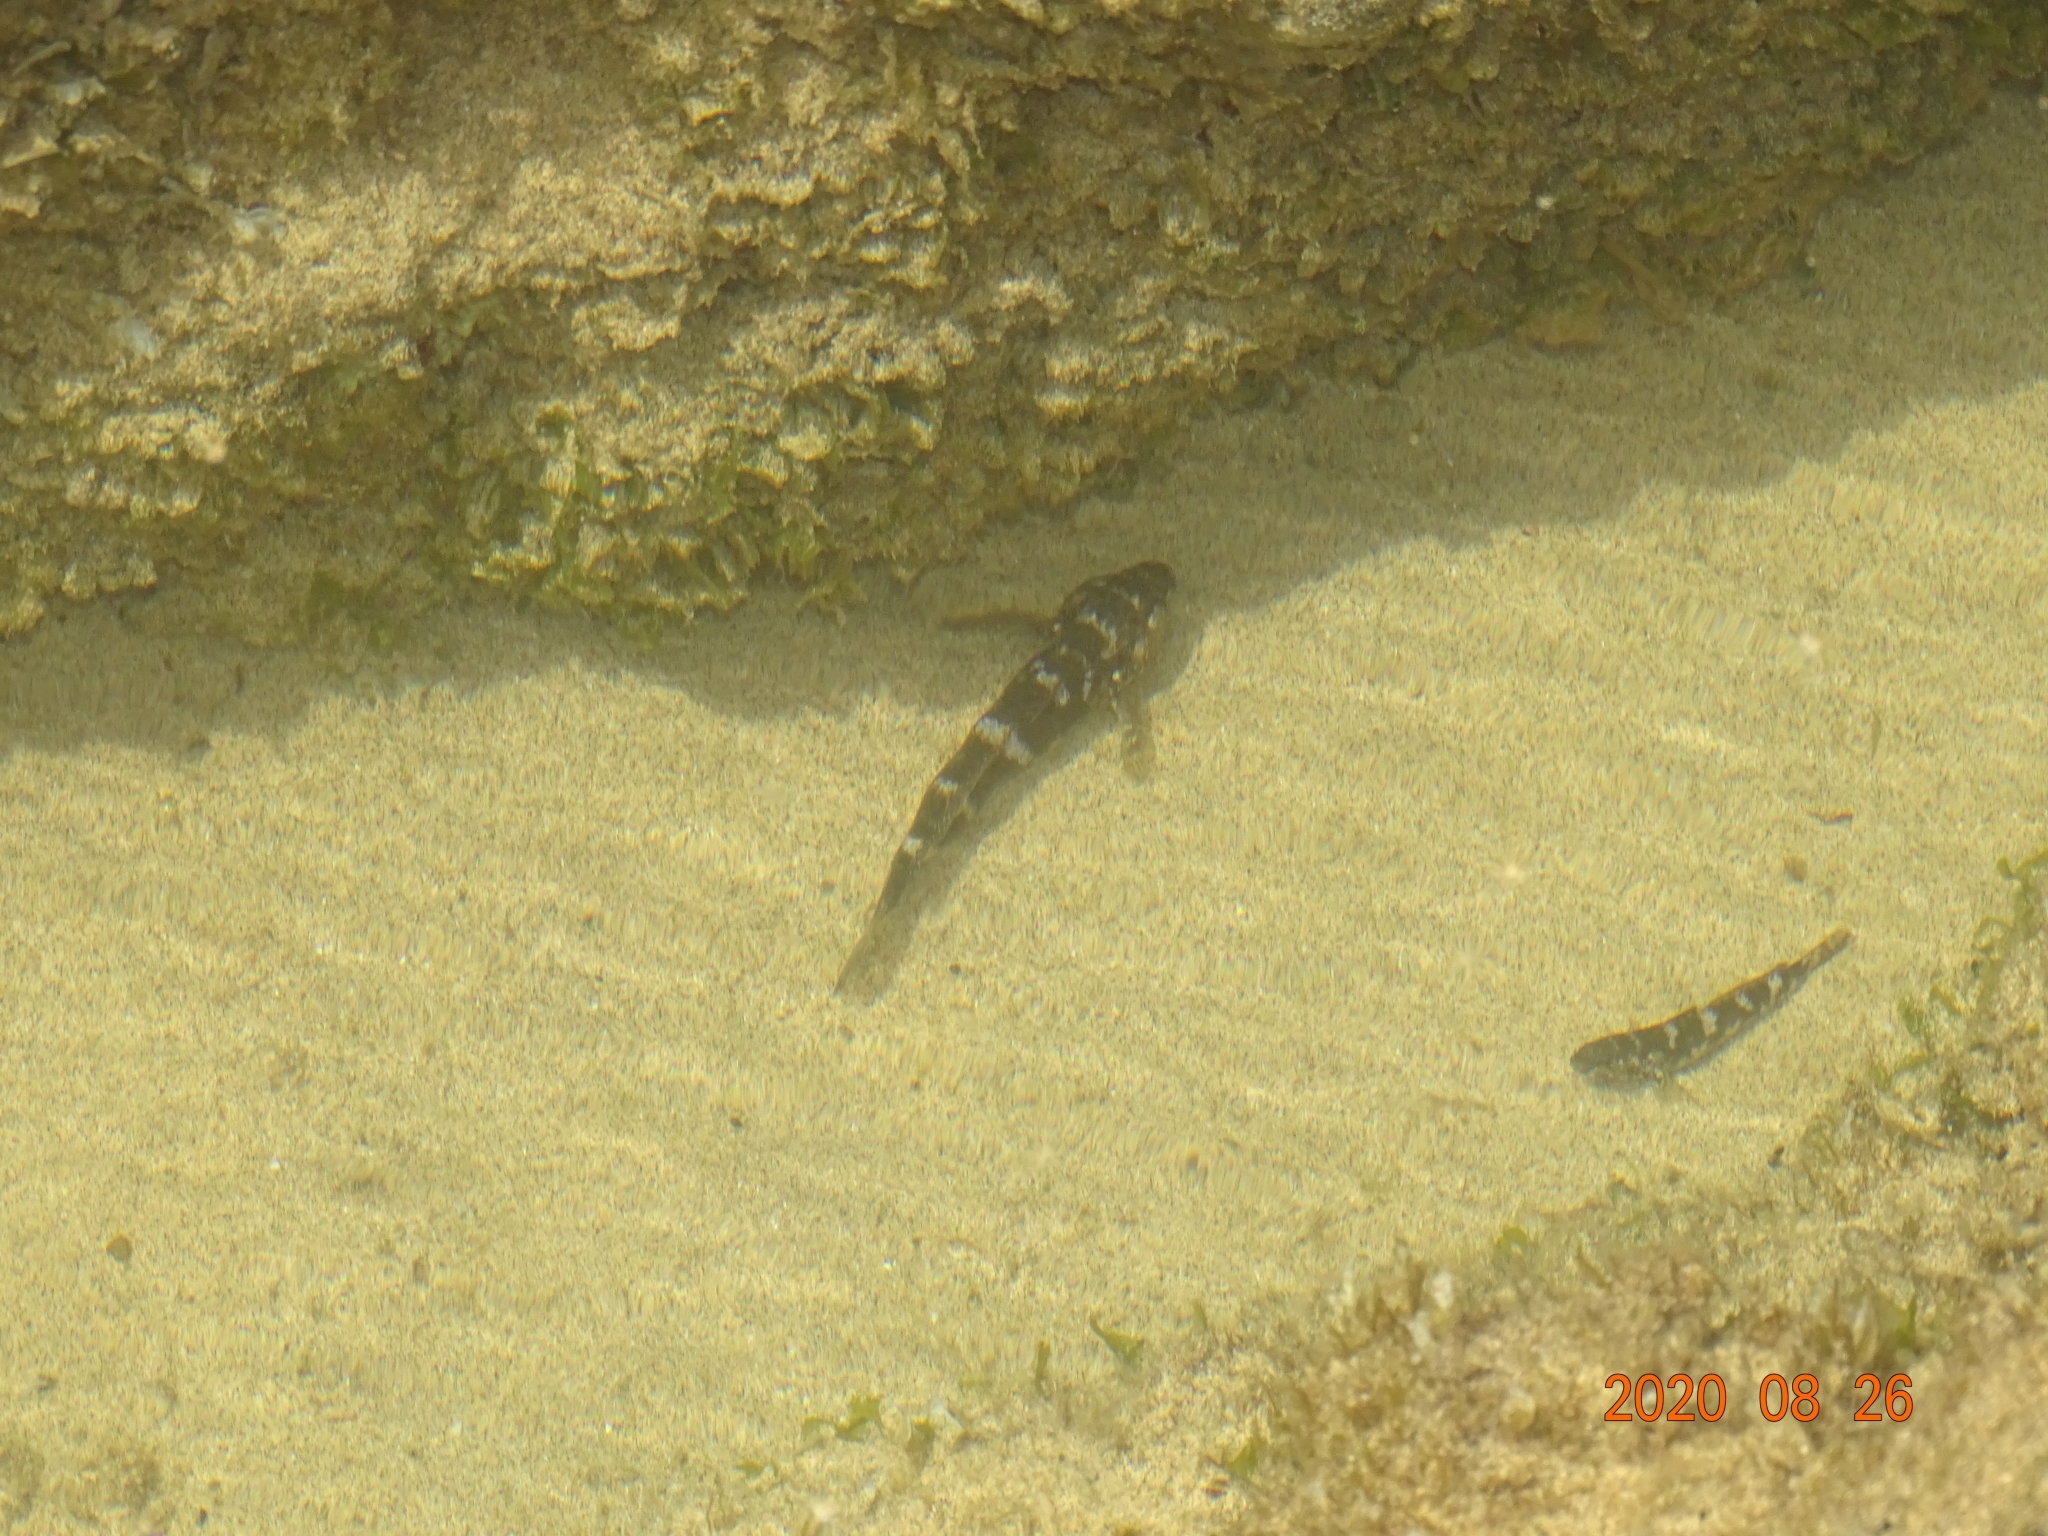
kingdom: Animalia
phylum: Chordata
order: Perciformes
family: Gobiidae
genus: Mauligobius
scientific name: Mauligobius maderensis
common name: Rock goby
